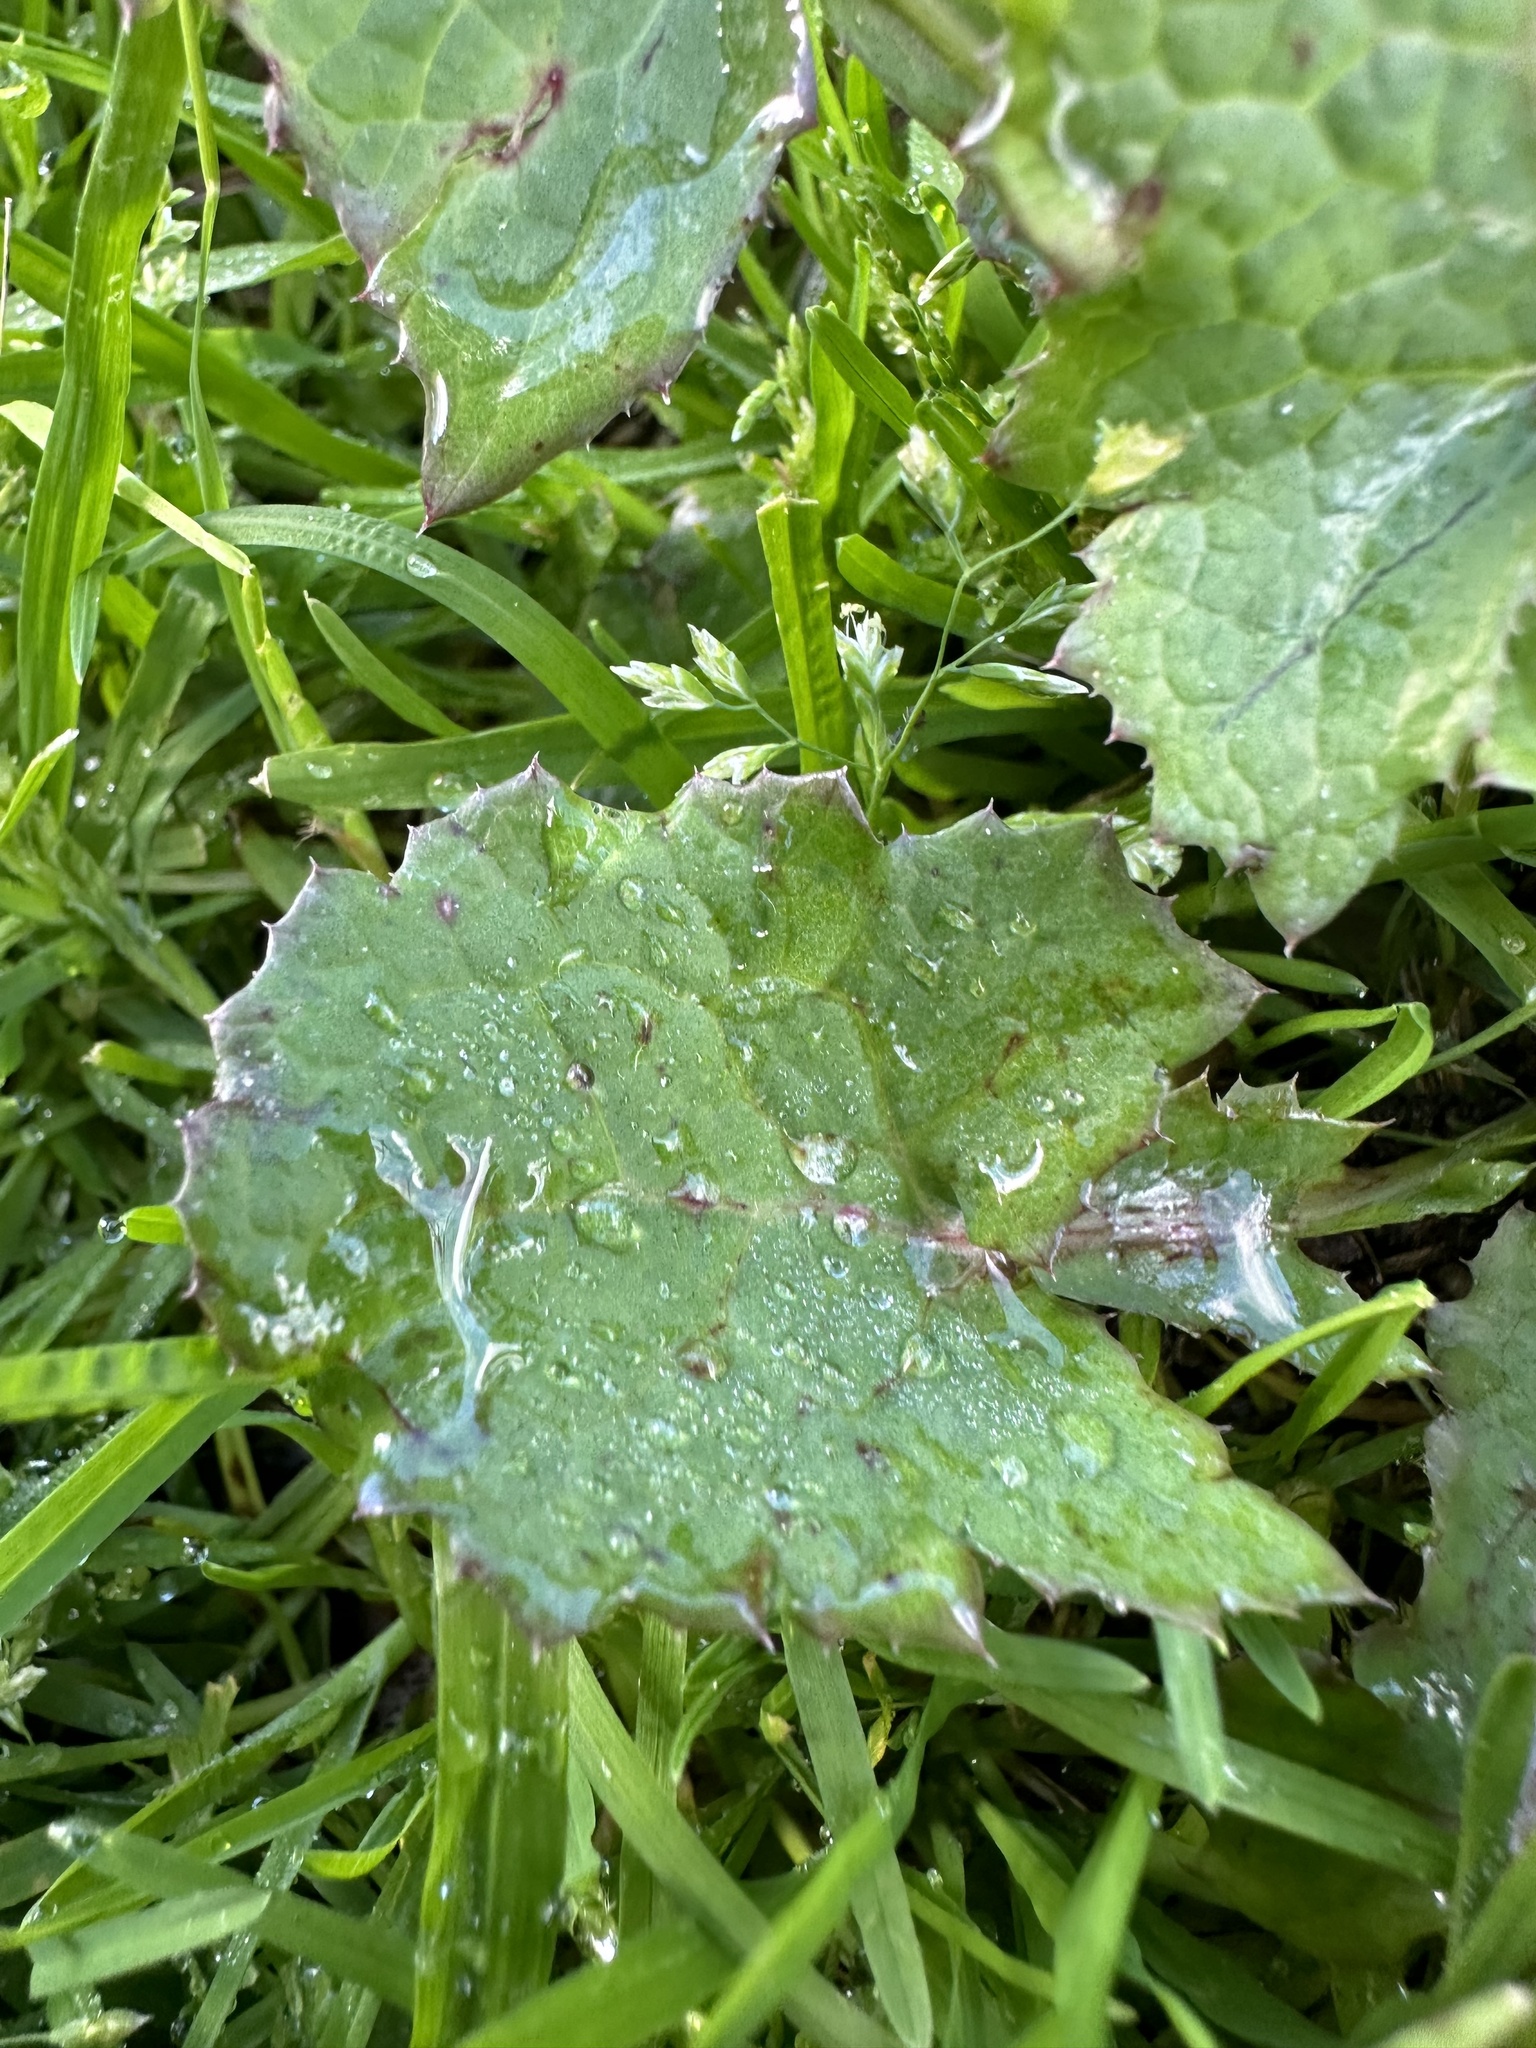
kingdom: Plantae
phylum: Tracheophyta
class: Magnoliopsida
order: Asterales
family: Asteraceae
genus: Sonchus
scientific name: Sonchus oleraceus
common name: Common sowthistle
